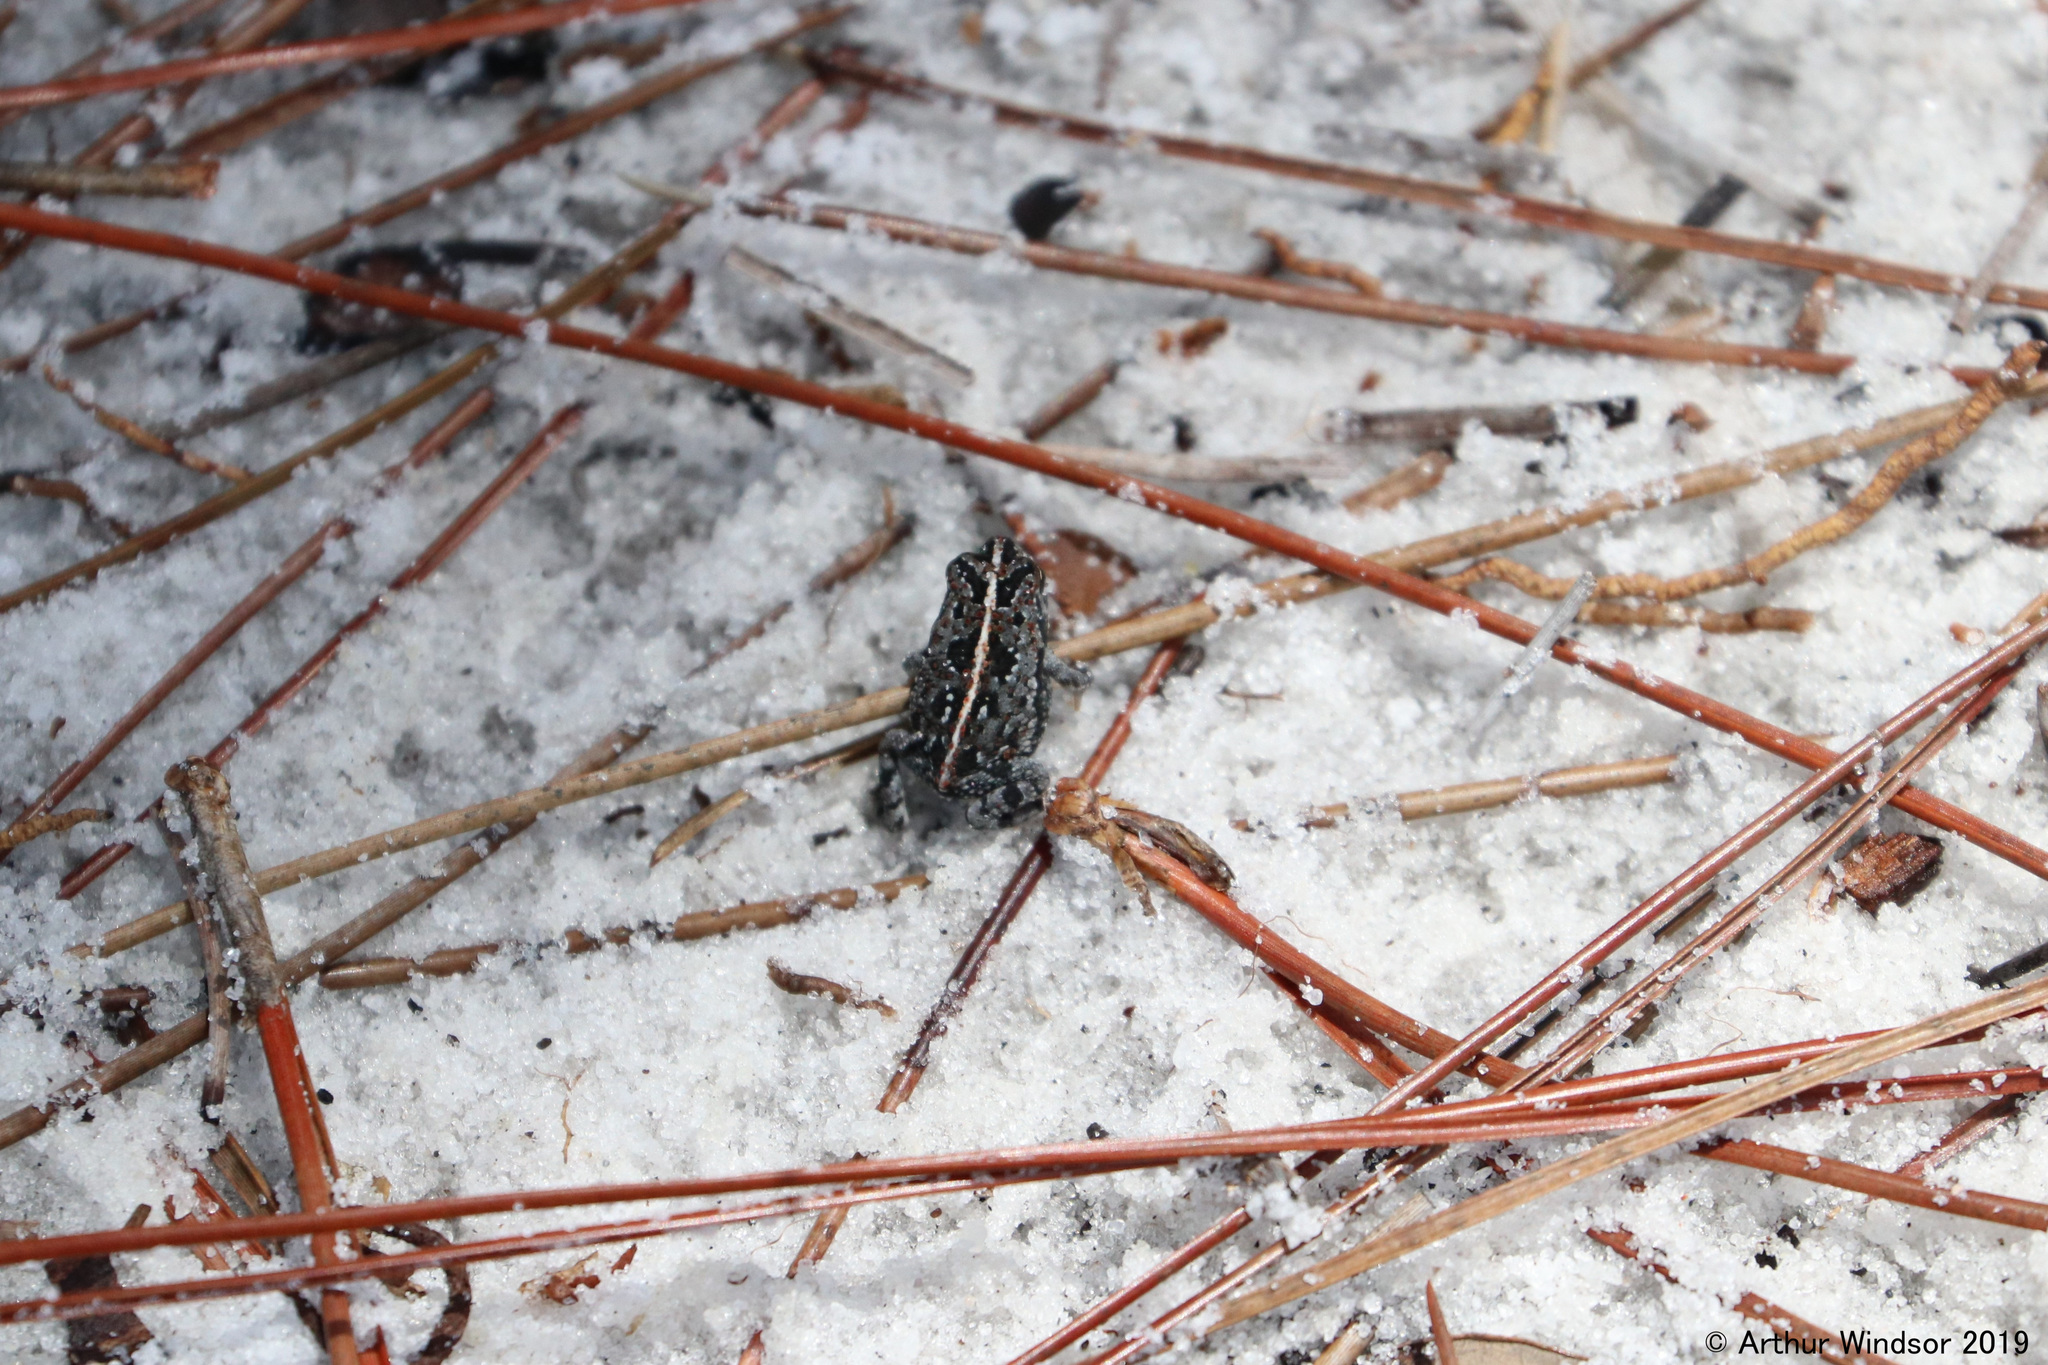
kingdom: Animalia
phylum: Chordata
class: Amphibia
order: Anura
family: Bufonidae
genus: Anaxyrus
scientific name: Anaxyrus quercicus
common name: Oak toad
